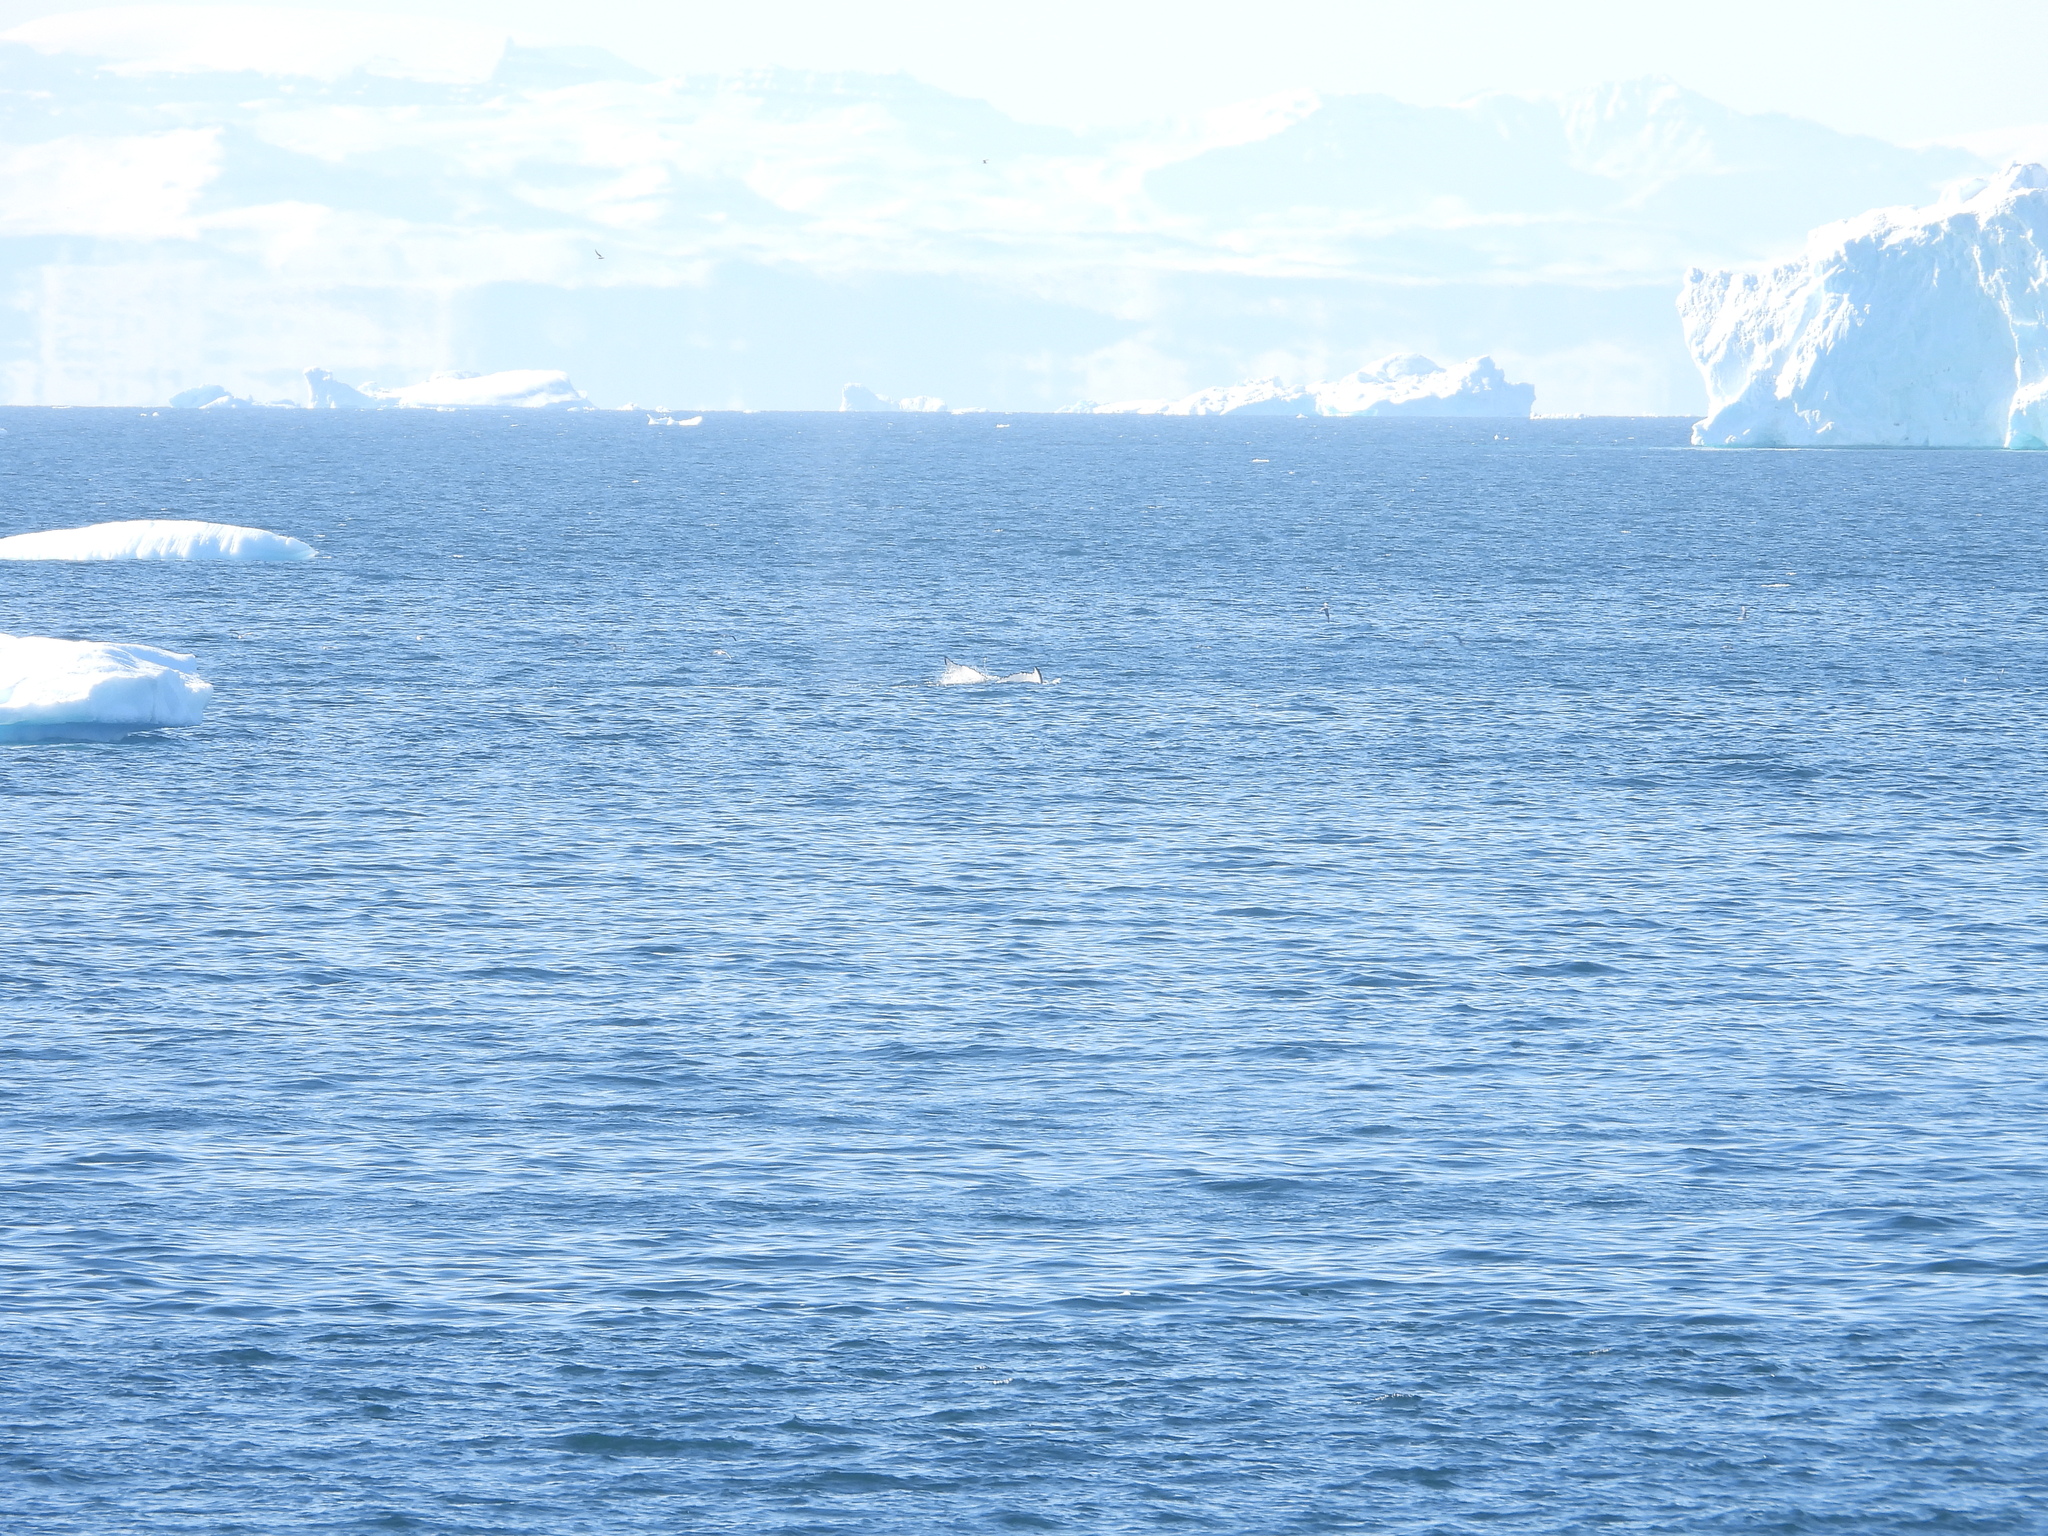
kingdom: Animalia
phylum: Chordata
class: Mammalia
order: Cetacea
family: Balaenopteridae
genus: Megaptera
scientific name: Megaptera novaeangliae
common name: Humpback whale
